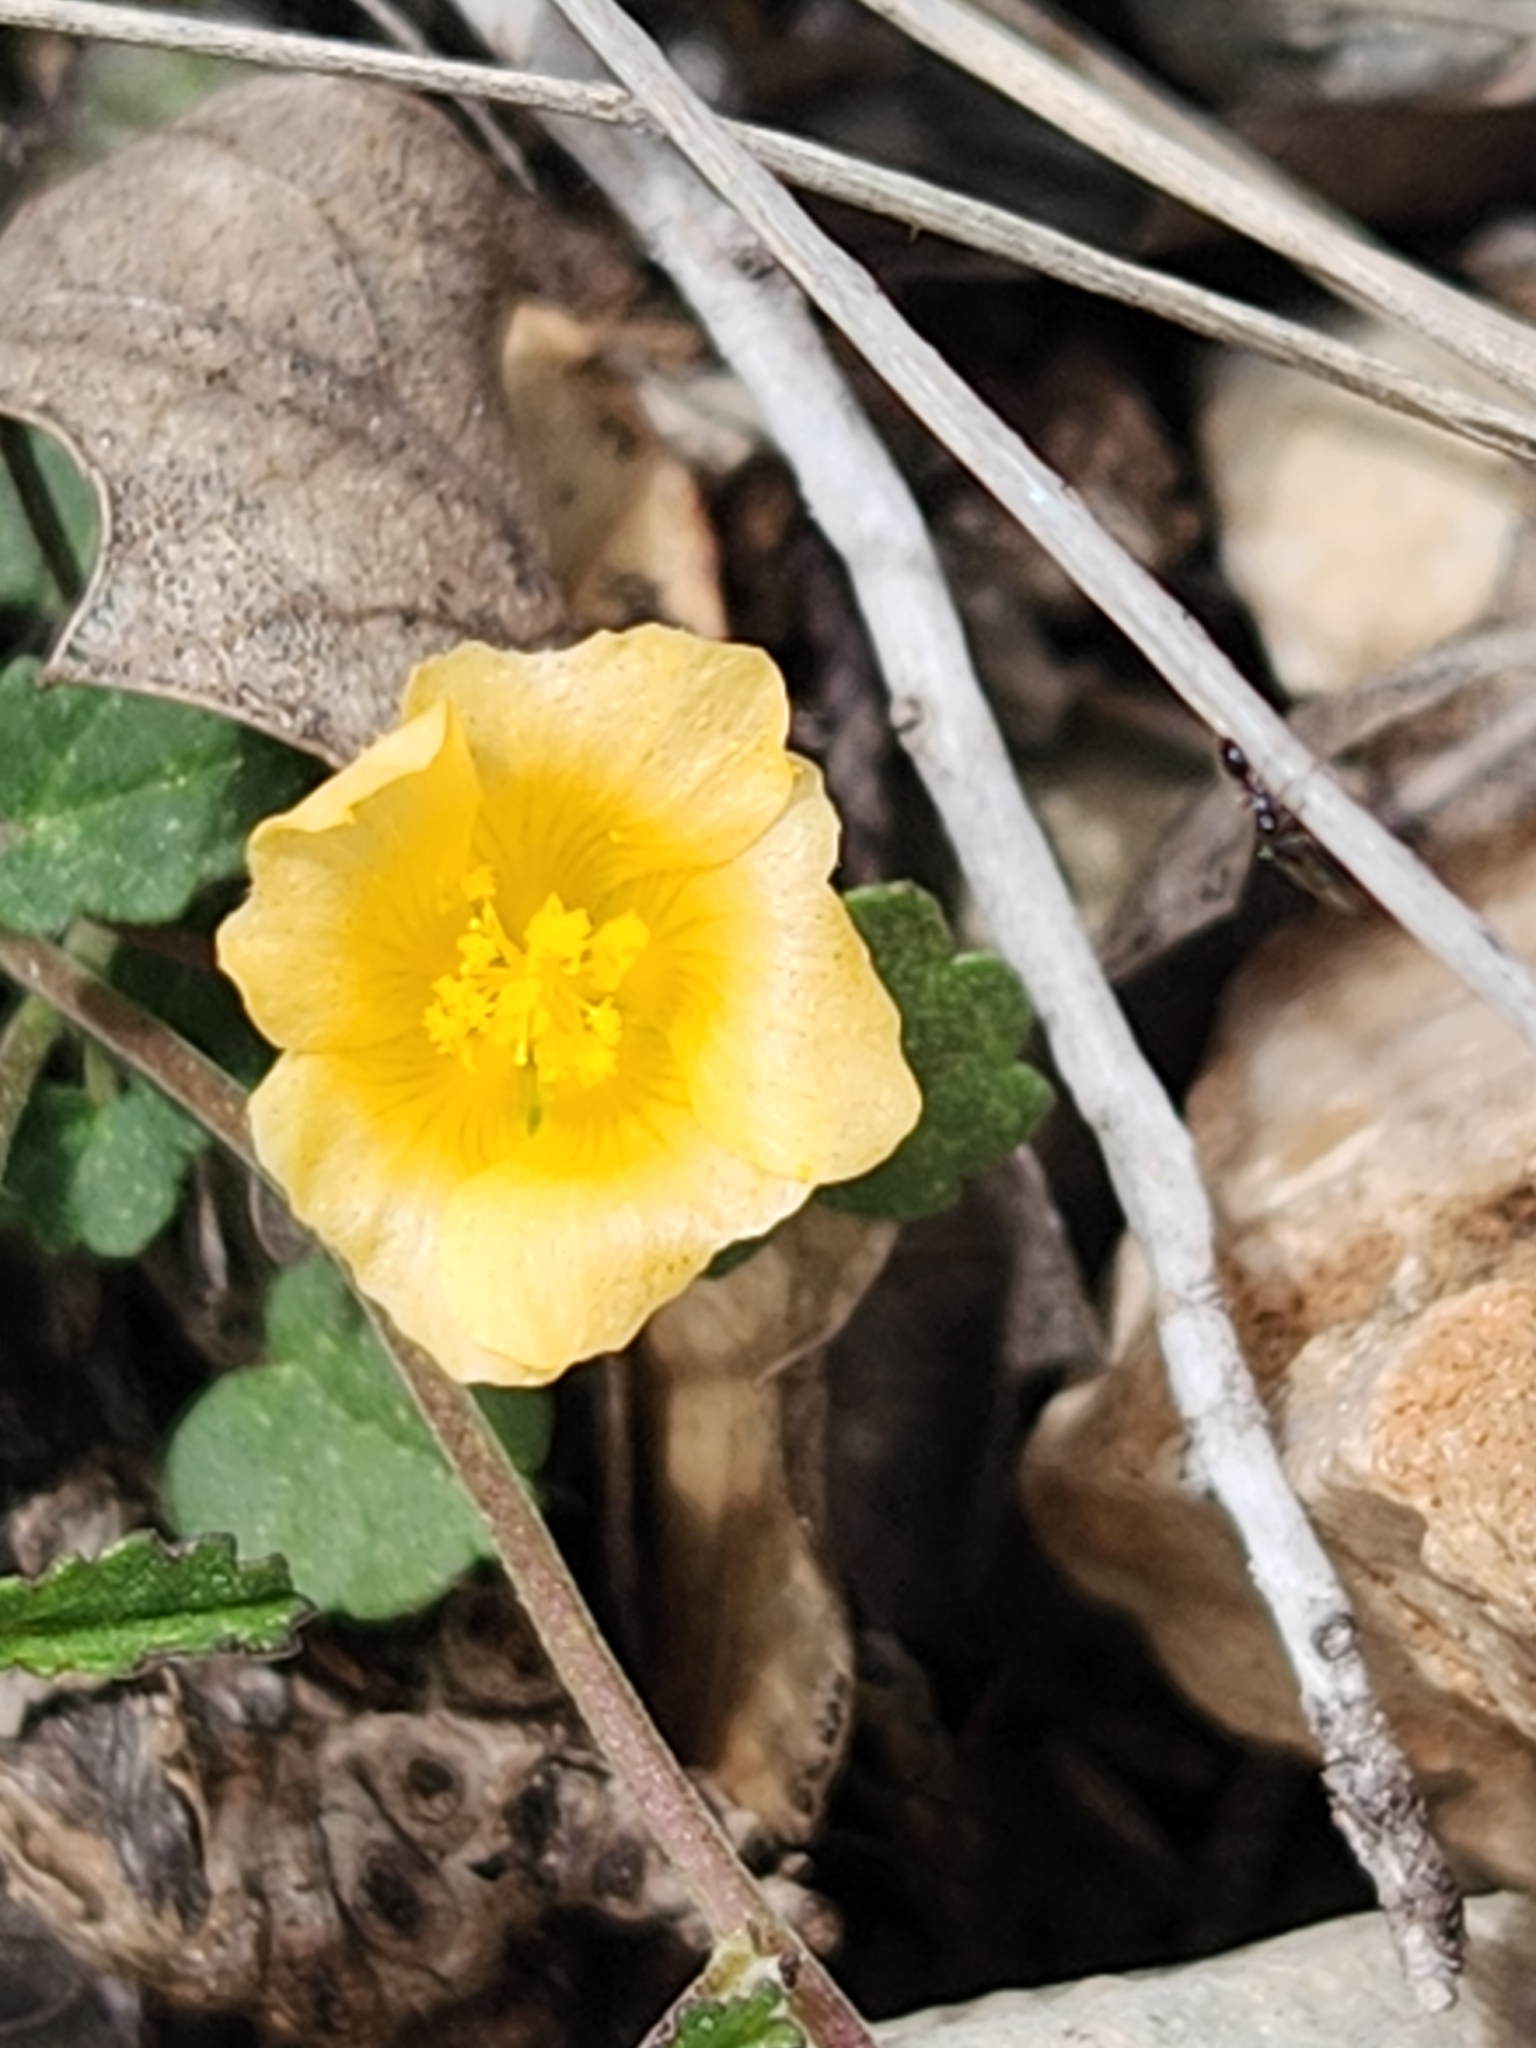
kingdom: Plantae
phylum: Tracheophyta
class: Magnoliopsida
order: Malvales
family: Malvaceae
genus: Sida
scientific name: Sida abutilifolia
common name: Spreading fanpetals
